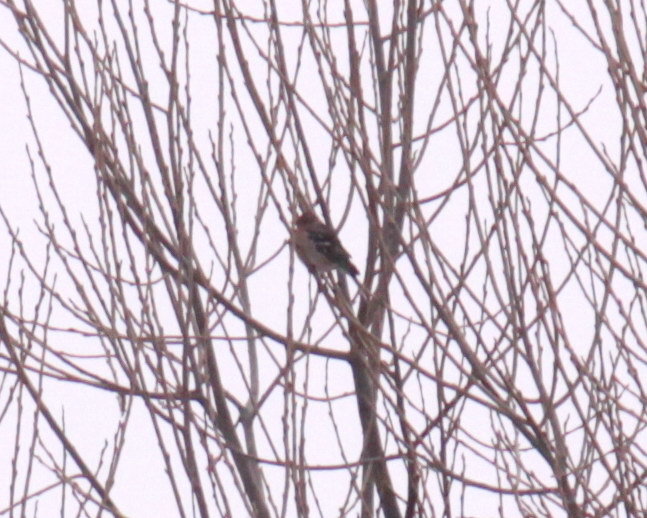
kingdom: Animalia
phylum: Chordata
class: Aves
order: Passeriformes
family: Fringillidae
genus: Fringilla
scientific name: Fringilla coelebs
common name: Common chaffinch
